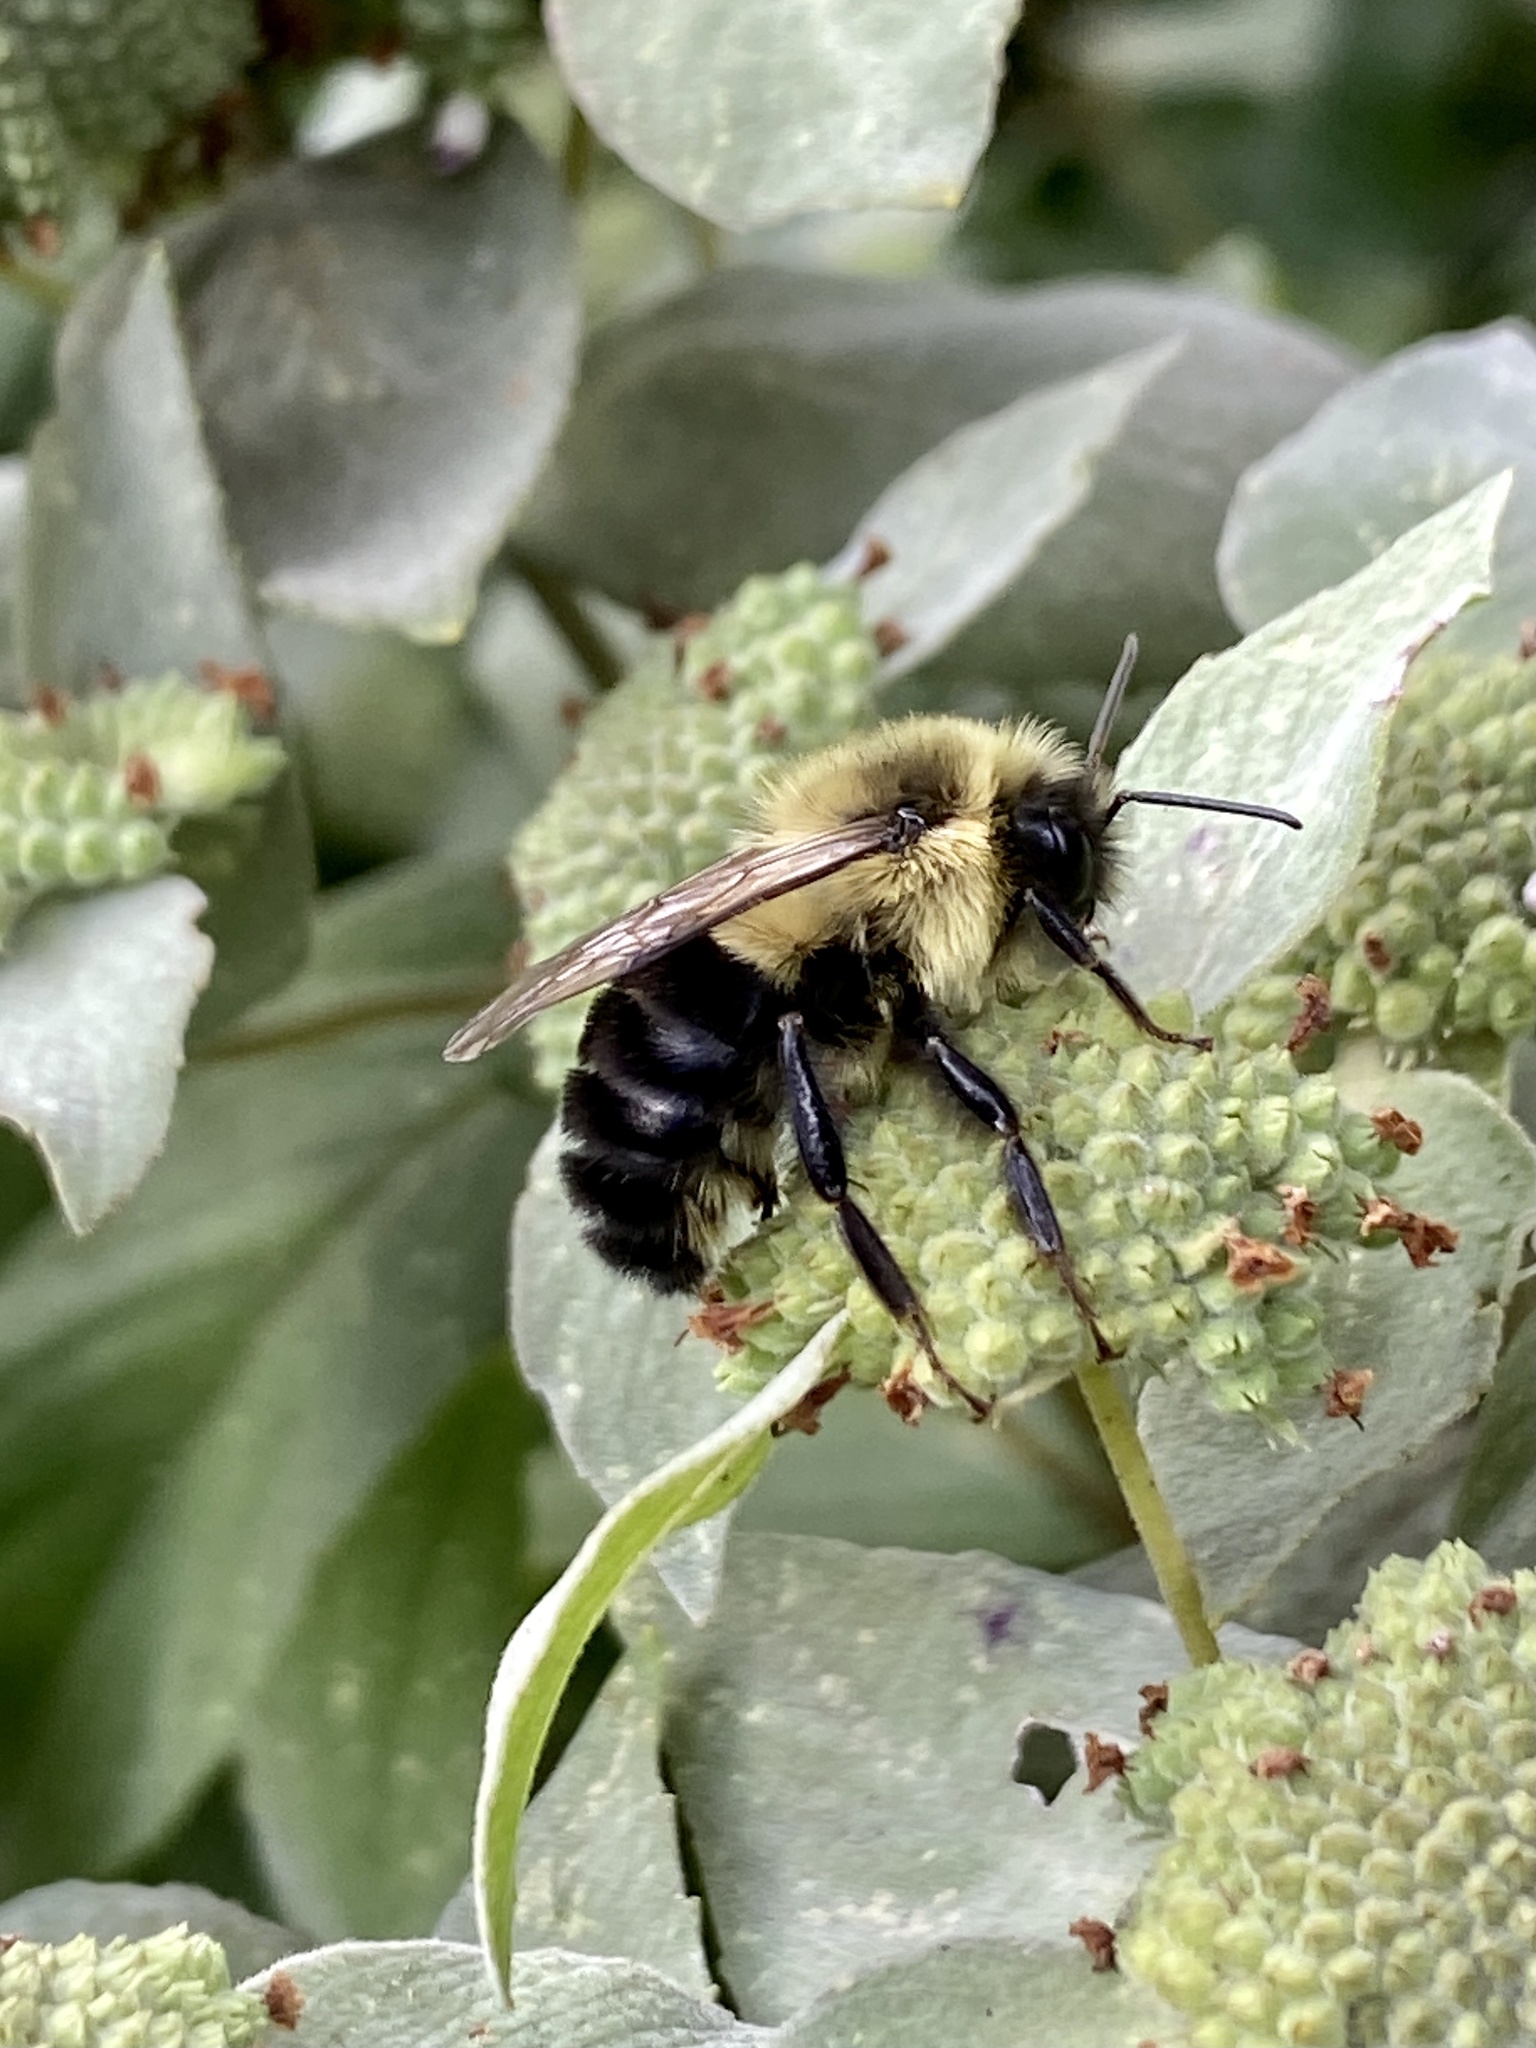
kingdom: Animalia
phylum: Arthropoda
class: Insecta
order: Hymenoptera
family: Apidae
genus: Bombus
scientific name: Bombus impatiens
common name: Common eastern bumble bee
